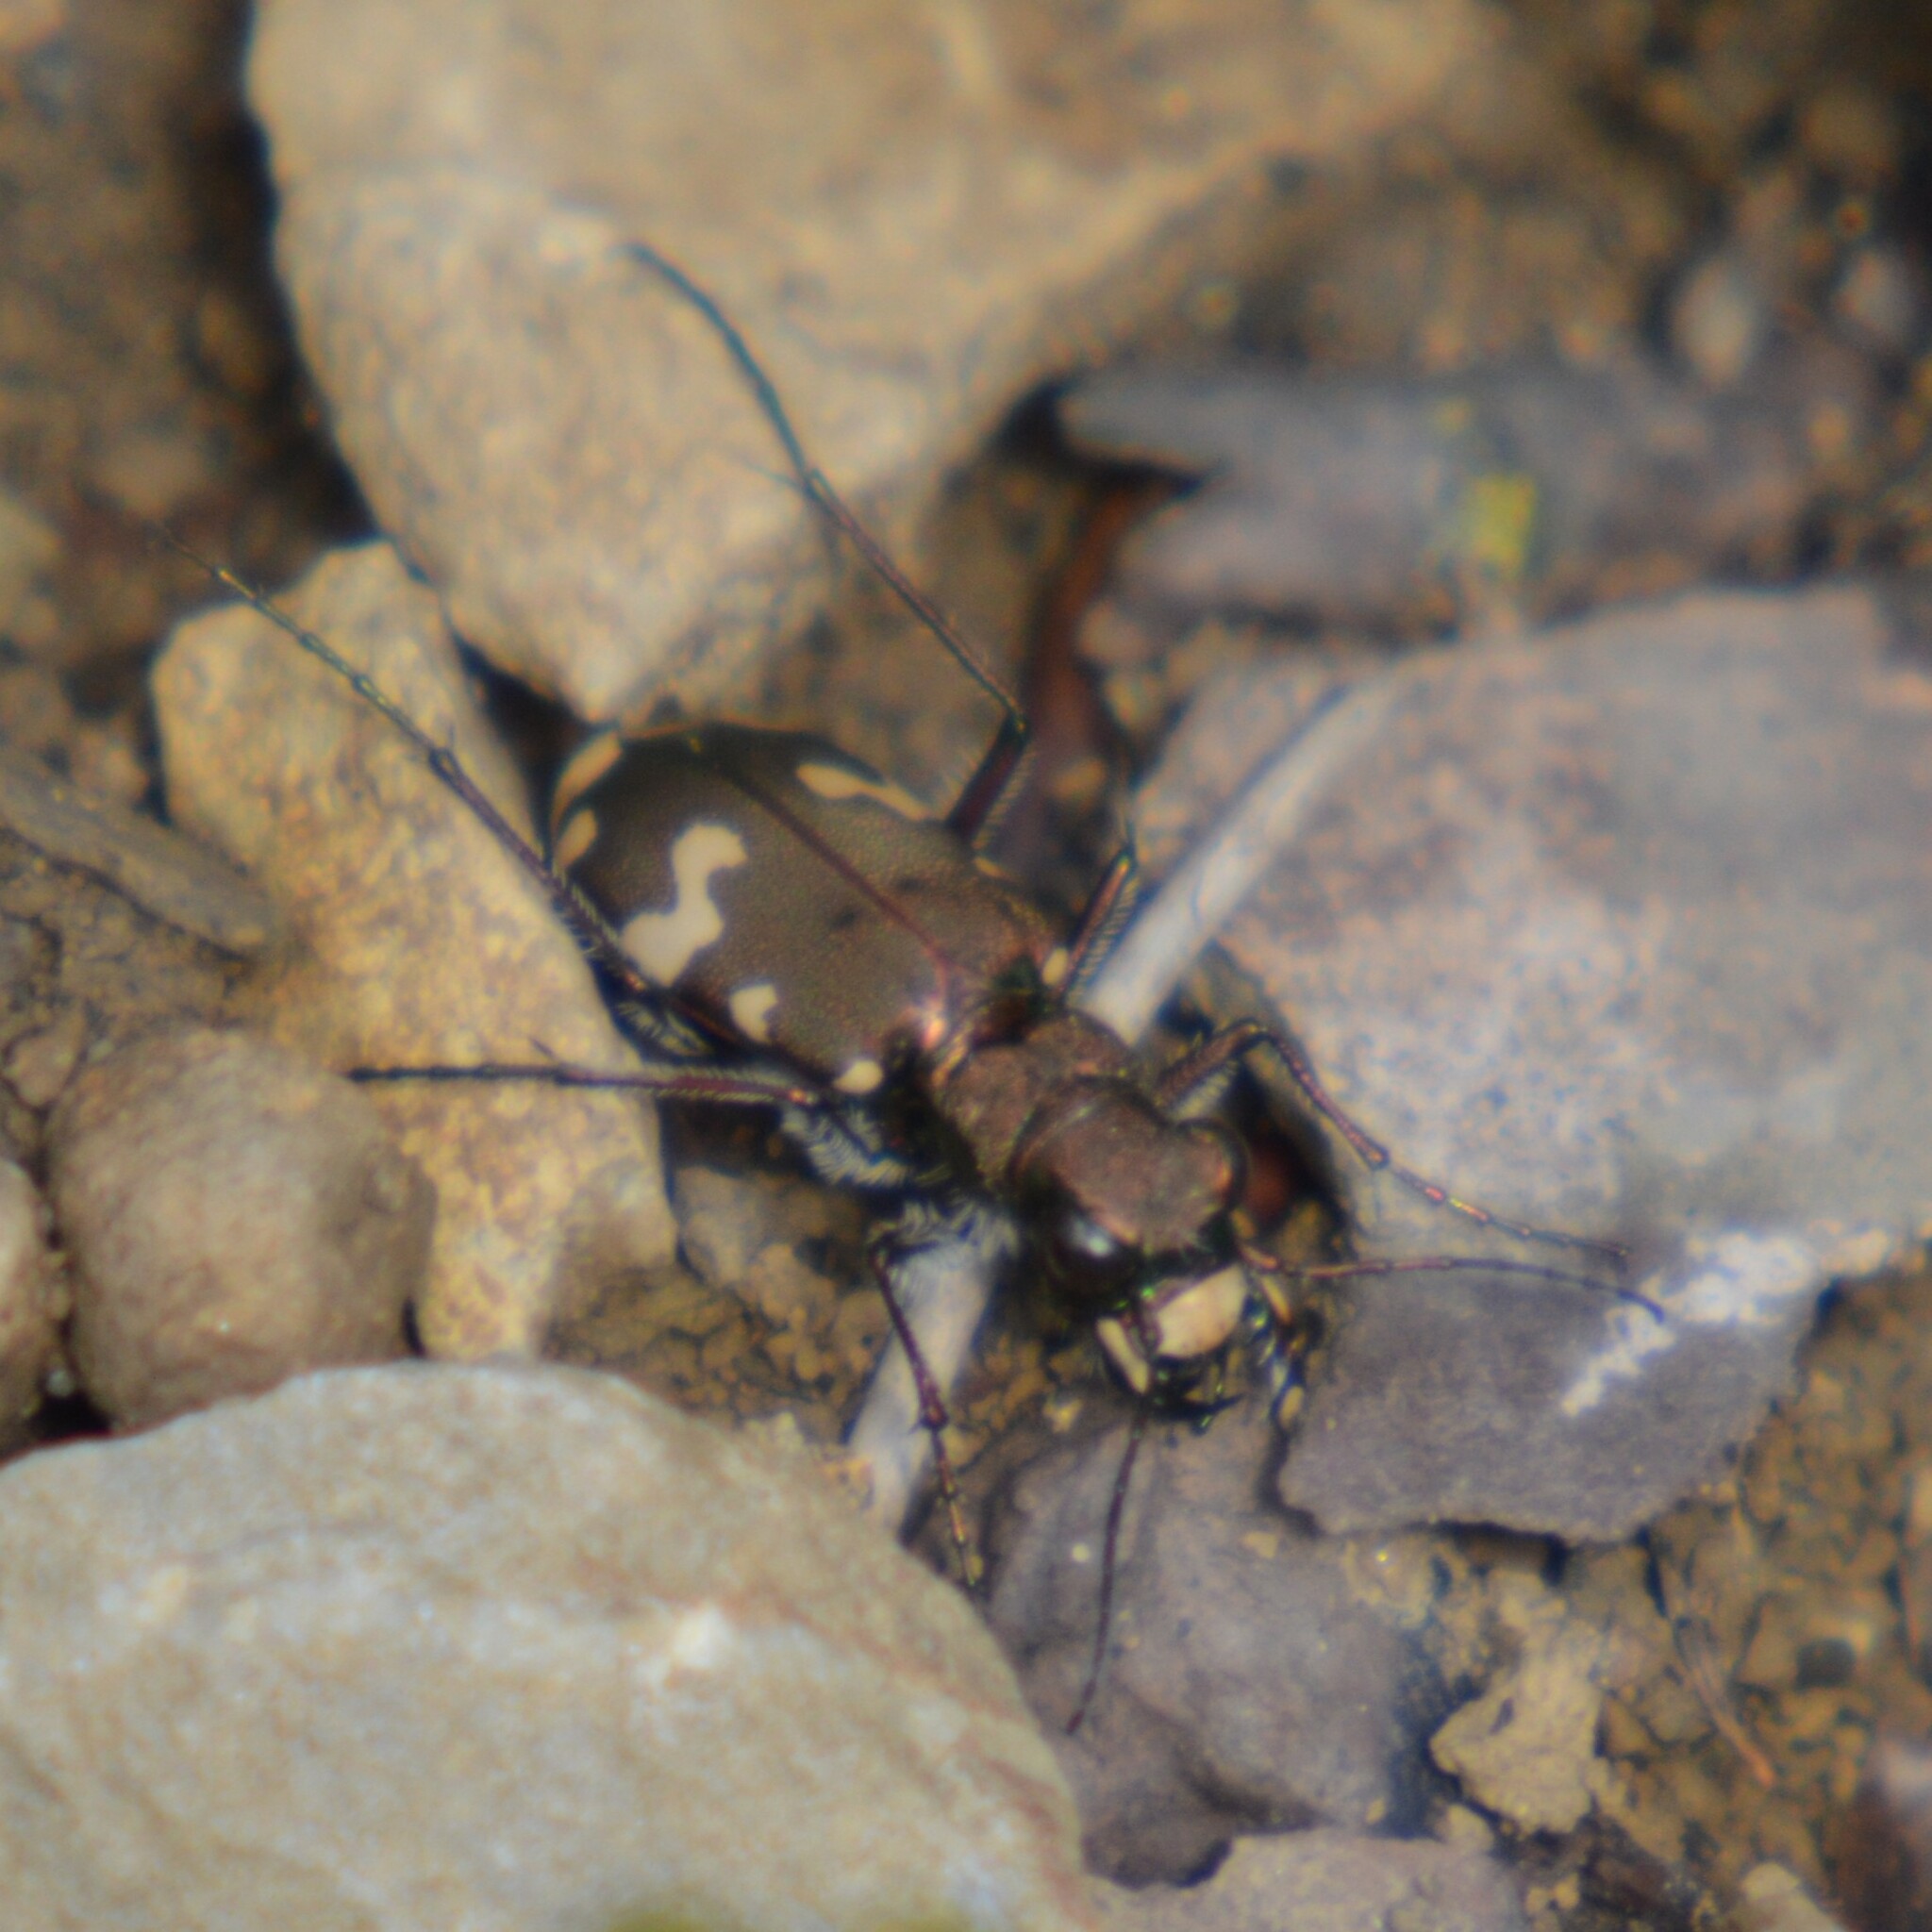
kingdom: Animalia
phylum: Arthropoda
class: Insecta
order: Coleoptera
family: Carabidae
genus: Cicindela
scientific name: Cicindela sylvicola
